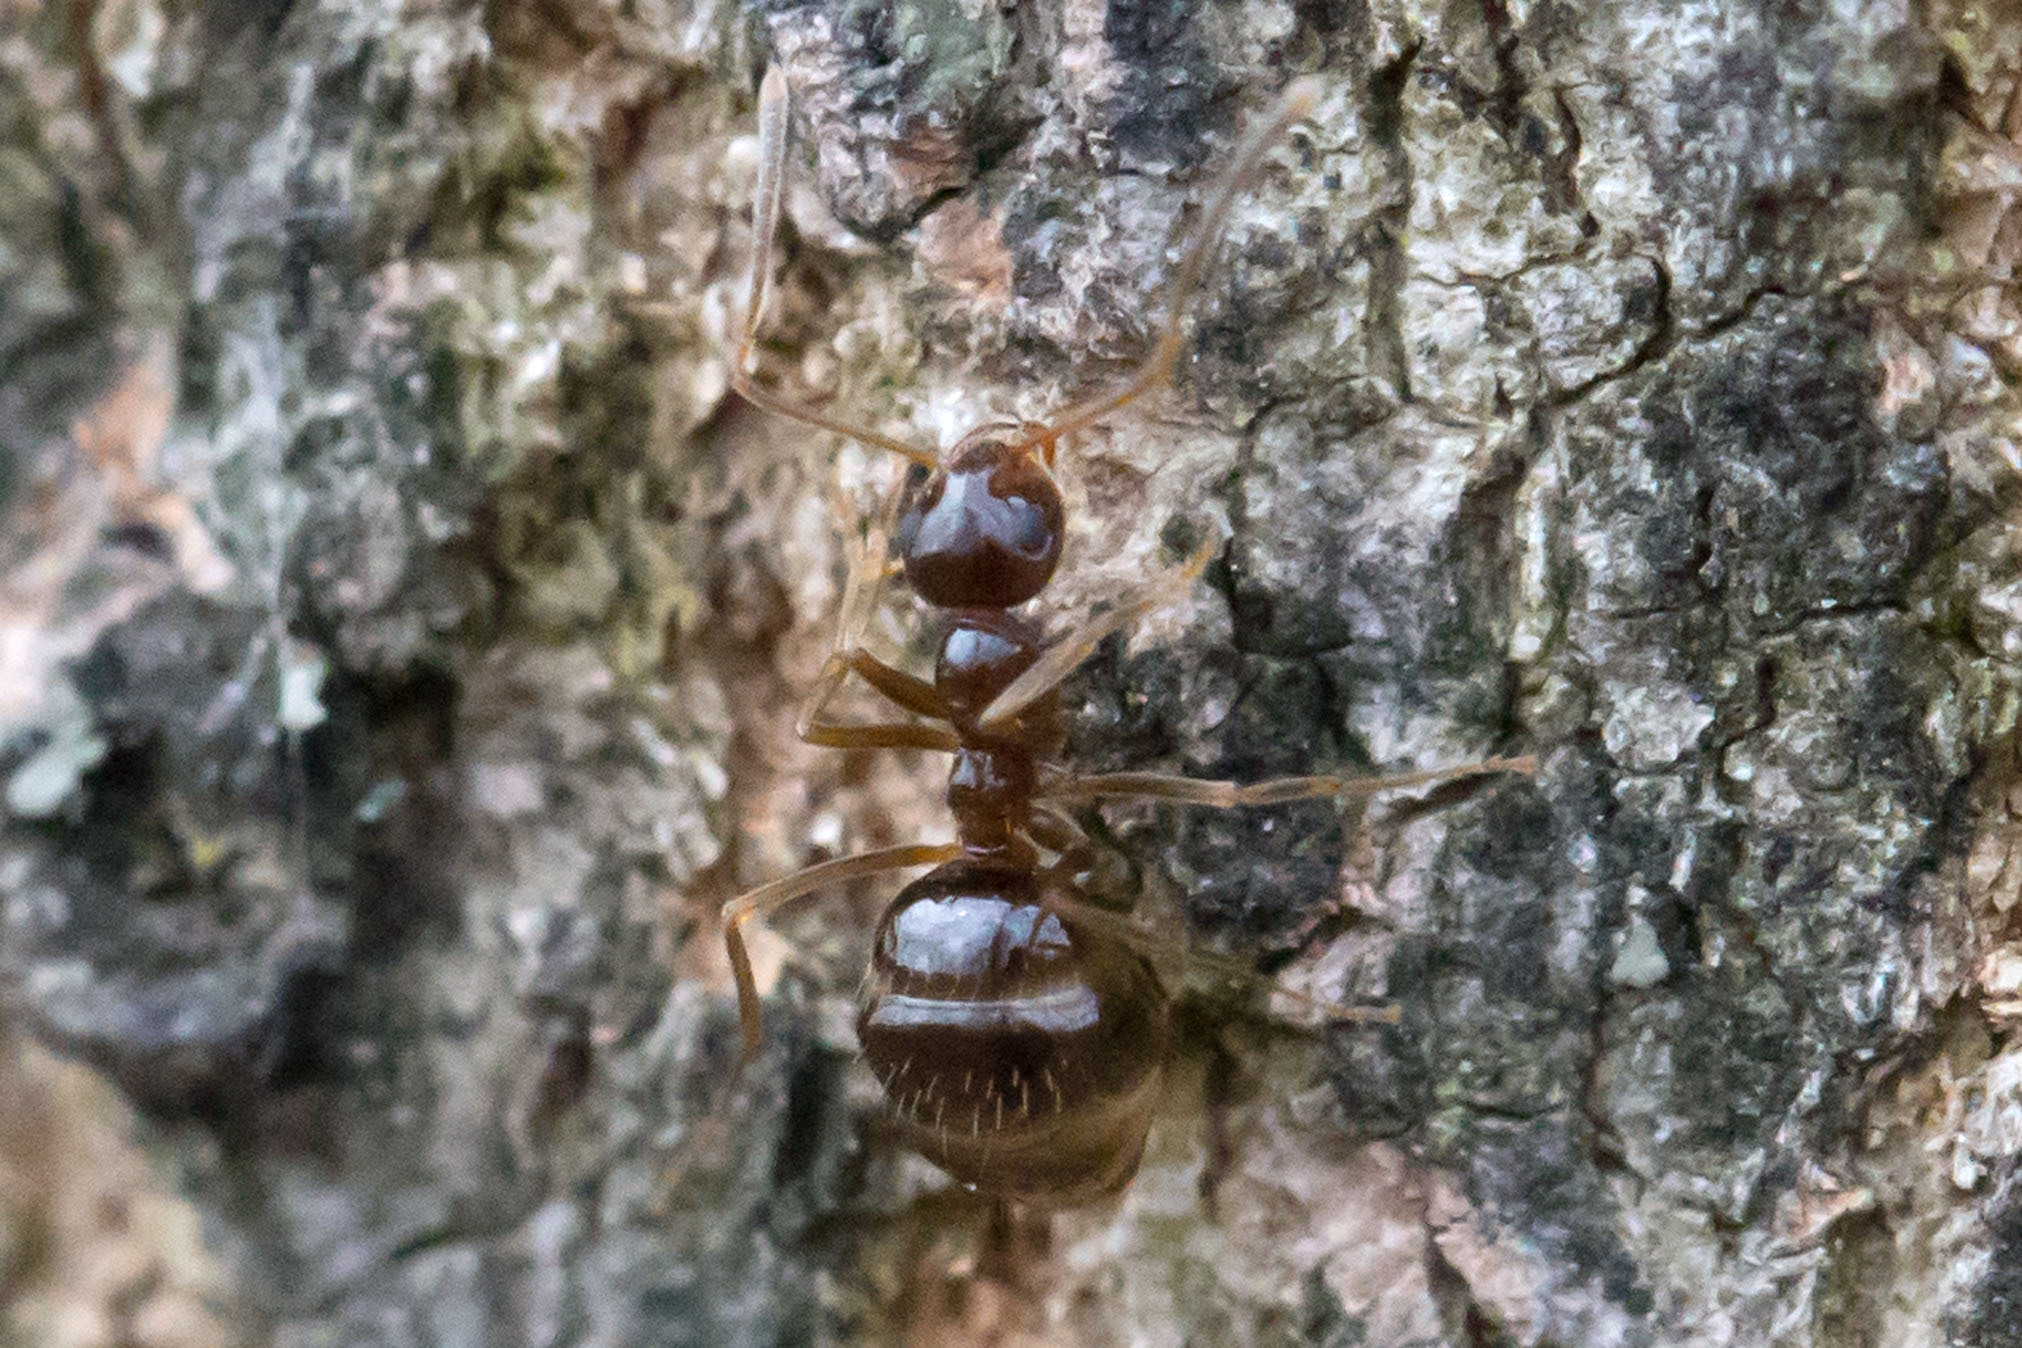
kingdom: Animalia
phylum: Arthropoda
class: Insecta
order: Hymenoptera
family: Formicidae
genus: Prenolepis
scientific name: Prenolepis imparis
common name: Small honey ant
